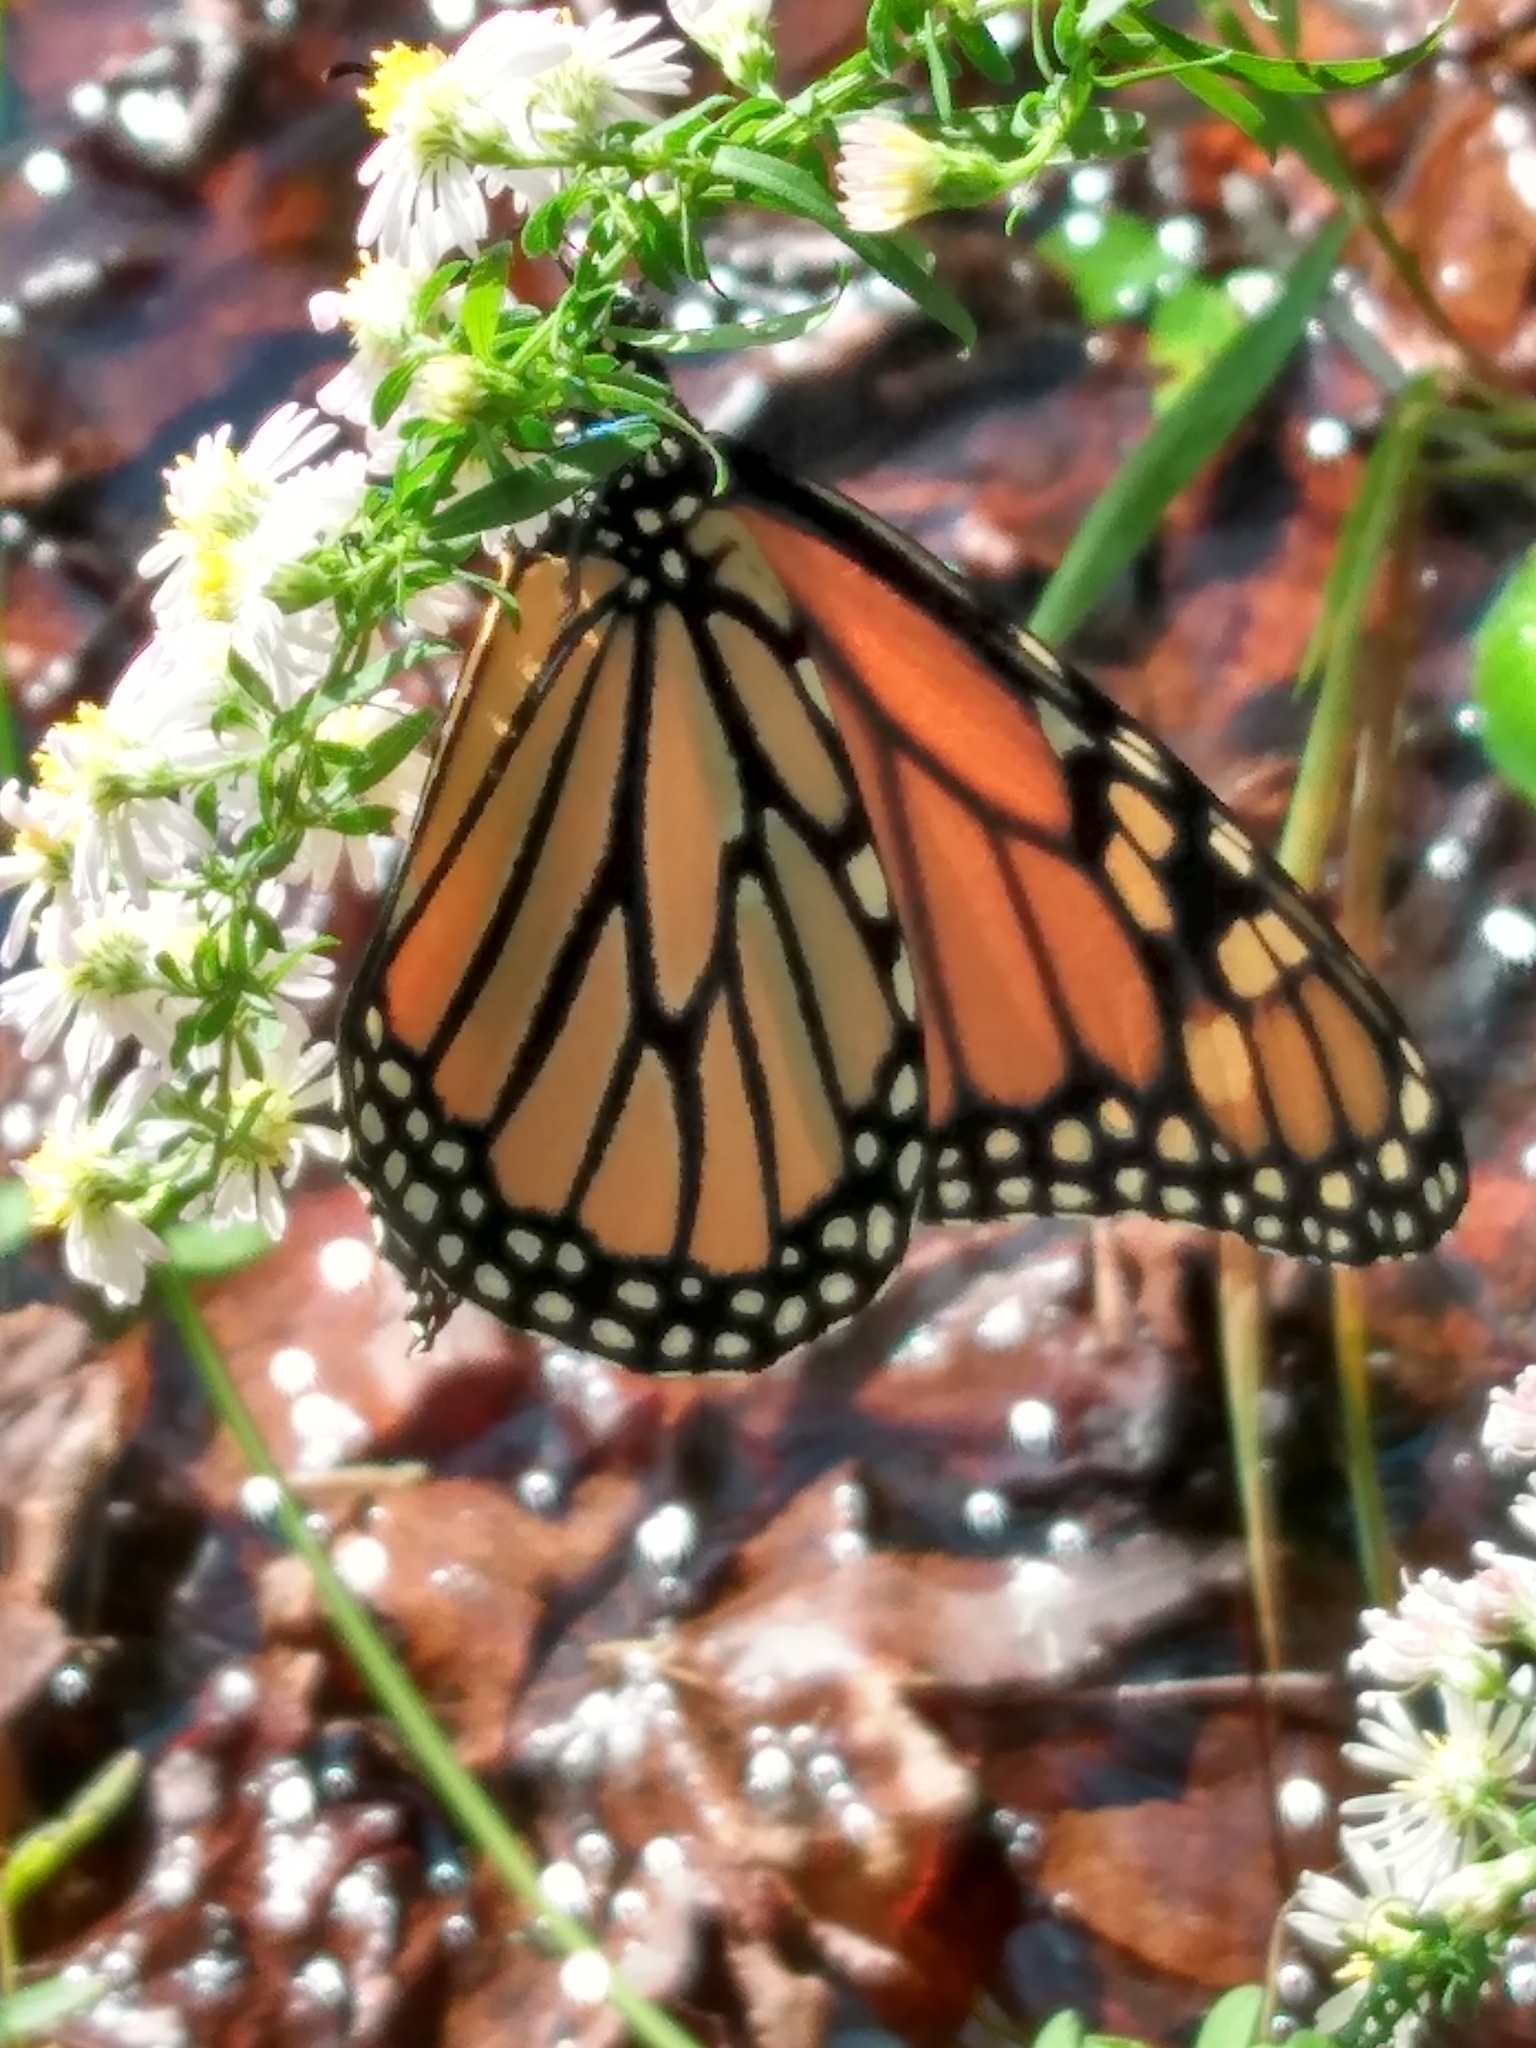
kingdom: Animalia
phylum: Arthropoda
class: Insecta
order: Lepidoptera
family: Nymphalidae
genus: Danaus
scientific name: Danaus plexippus
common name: Monarch
